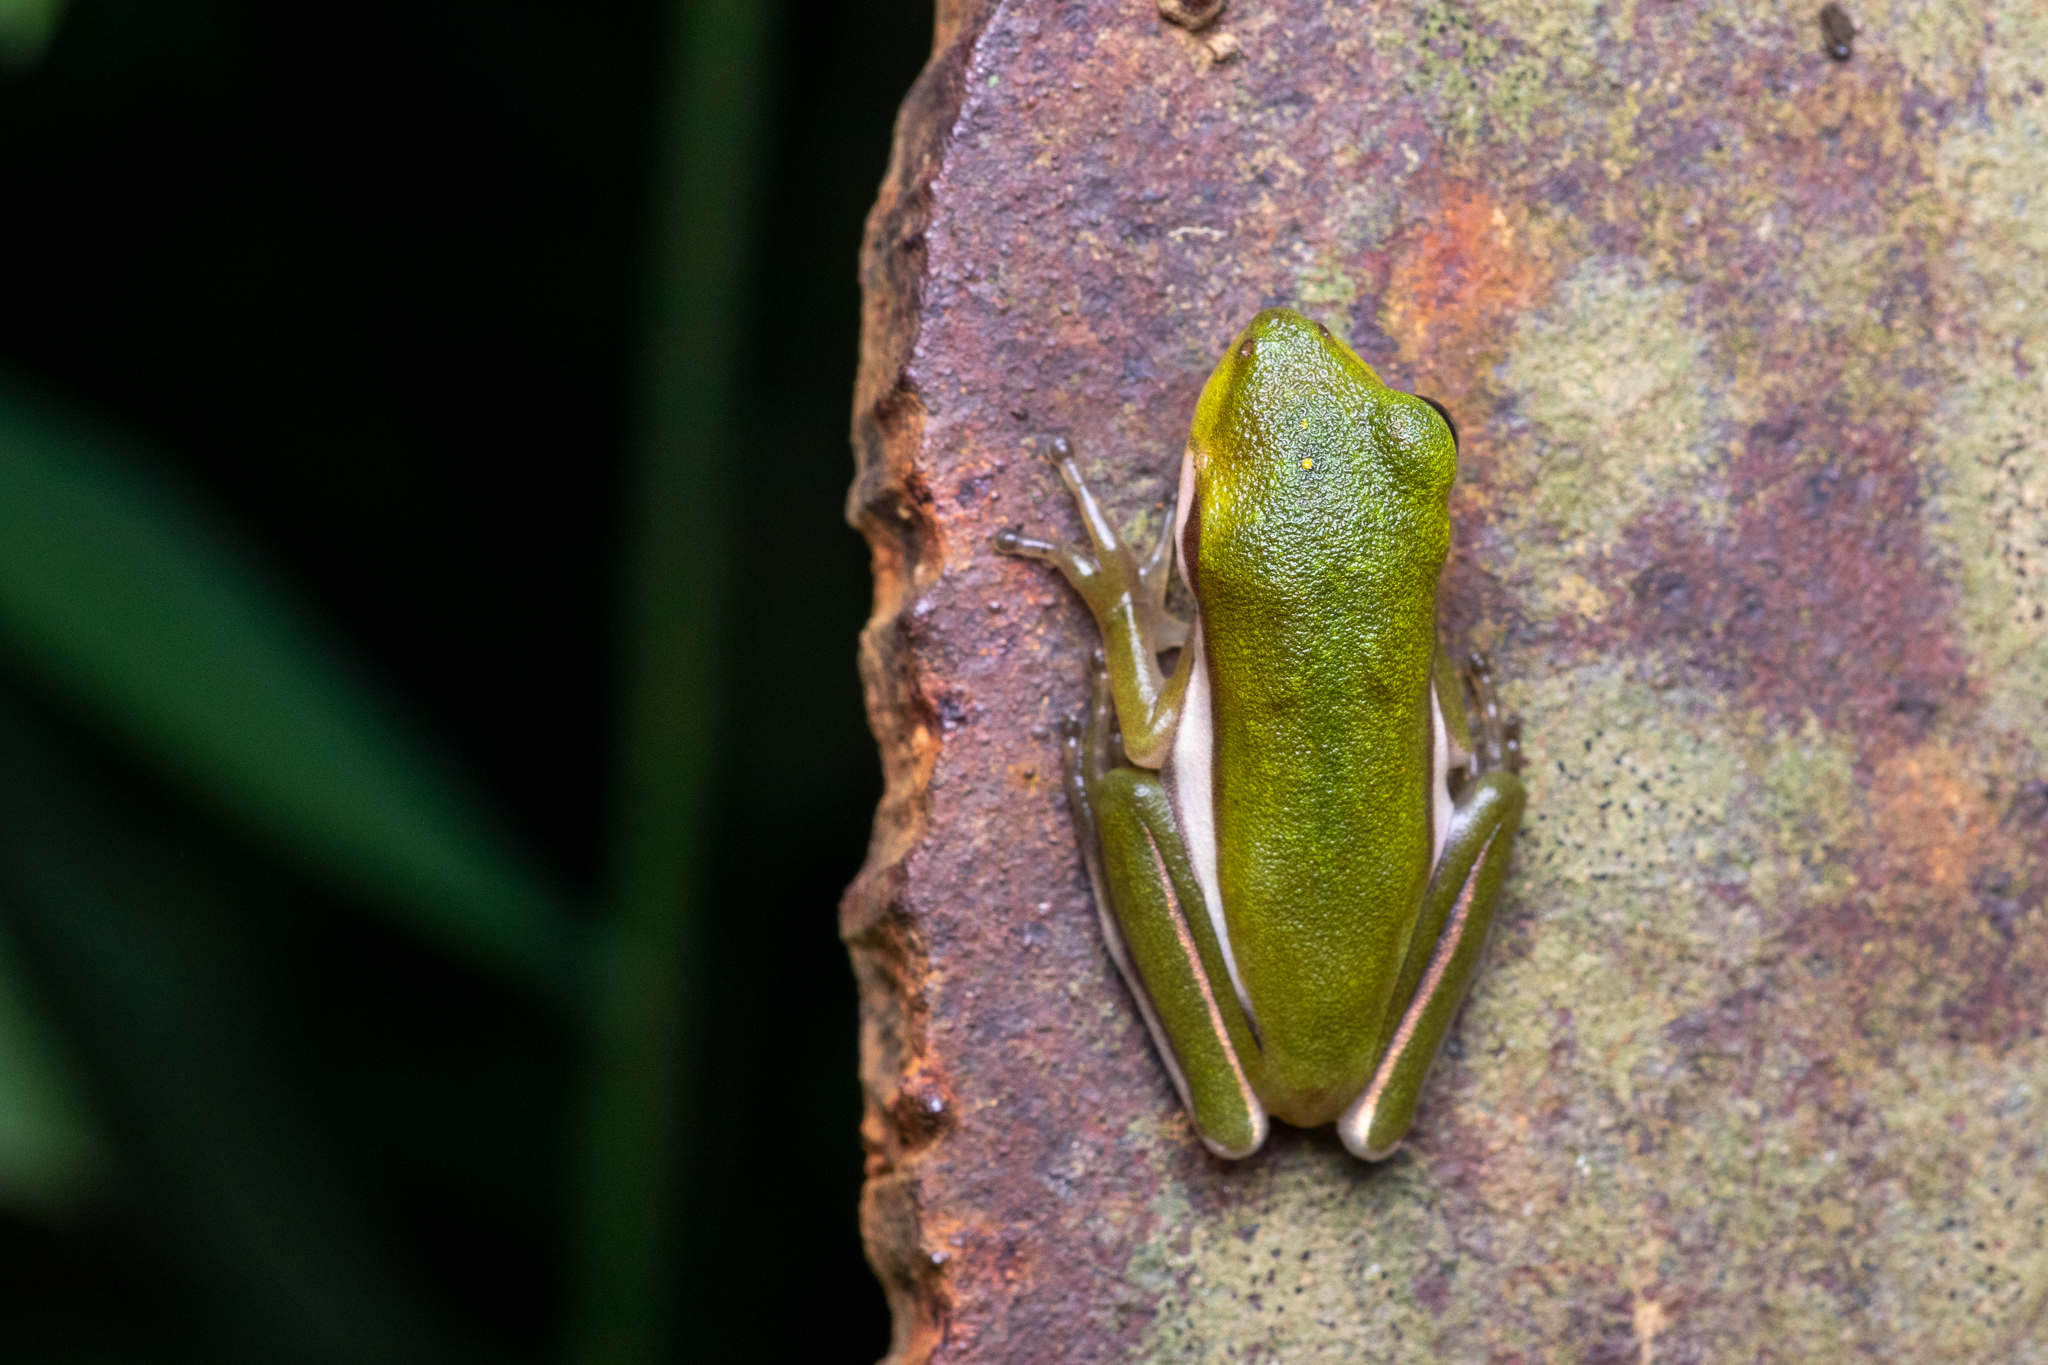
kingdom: Animalia
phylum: Chordata
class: Amphibia
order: Anura
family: Hylidae
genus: Dryophytes
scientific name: Dryophytes cinereus
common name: Green treefrog
